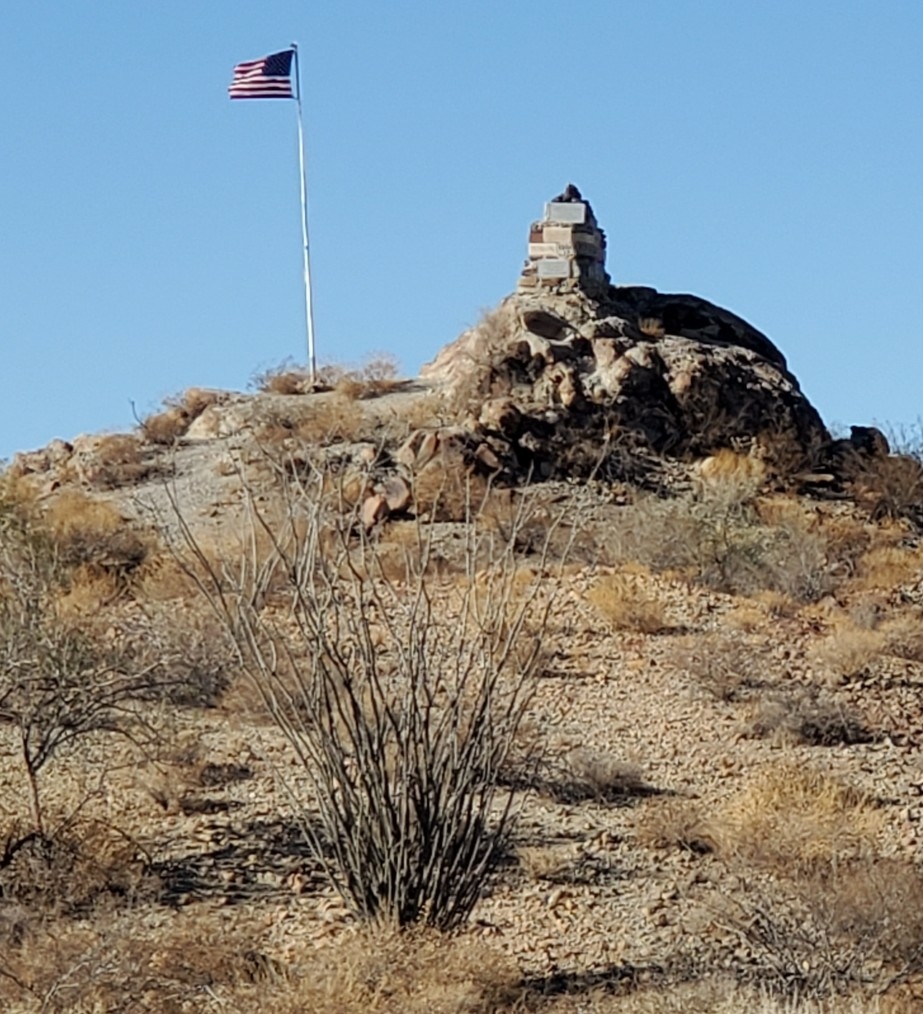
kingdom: Plantae
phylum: Tracheophyta
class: Magnoliopsida
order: Ericales
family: Fouquieriaceae
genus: Fouquieria
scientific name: Fouquieria splendens
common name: Vine-cactus
